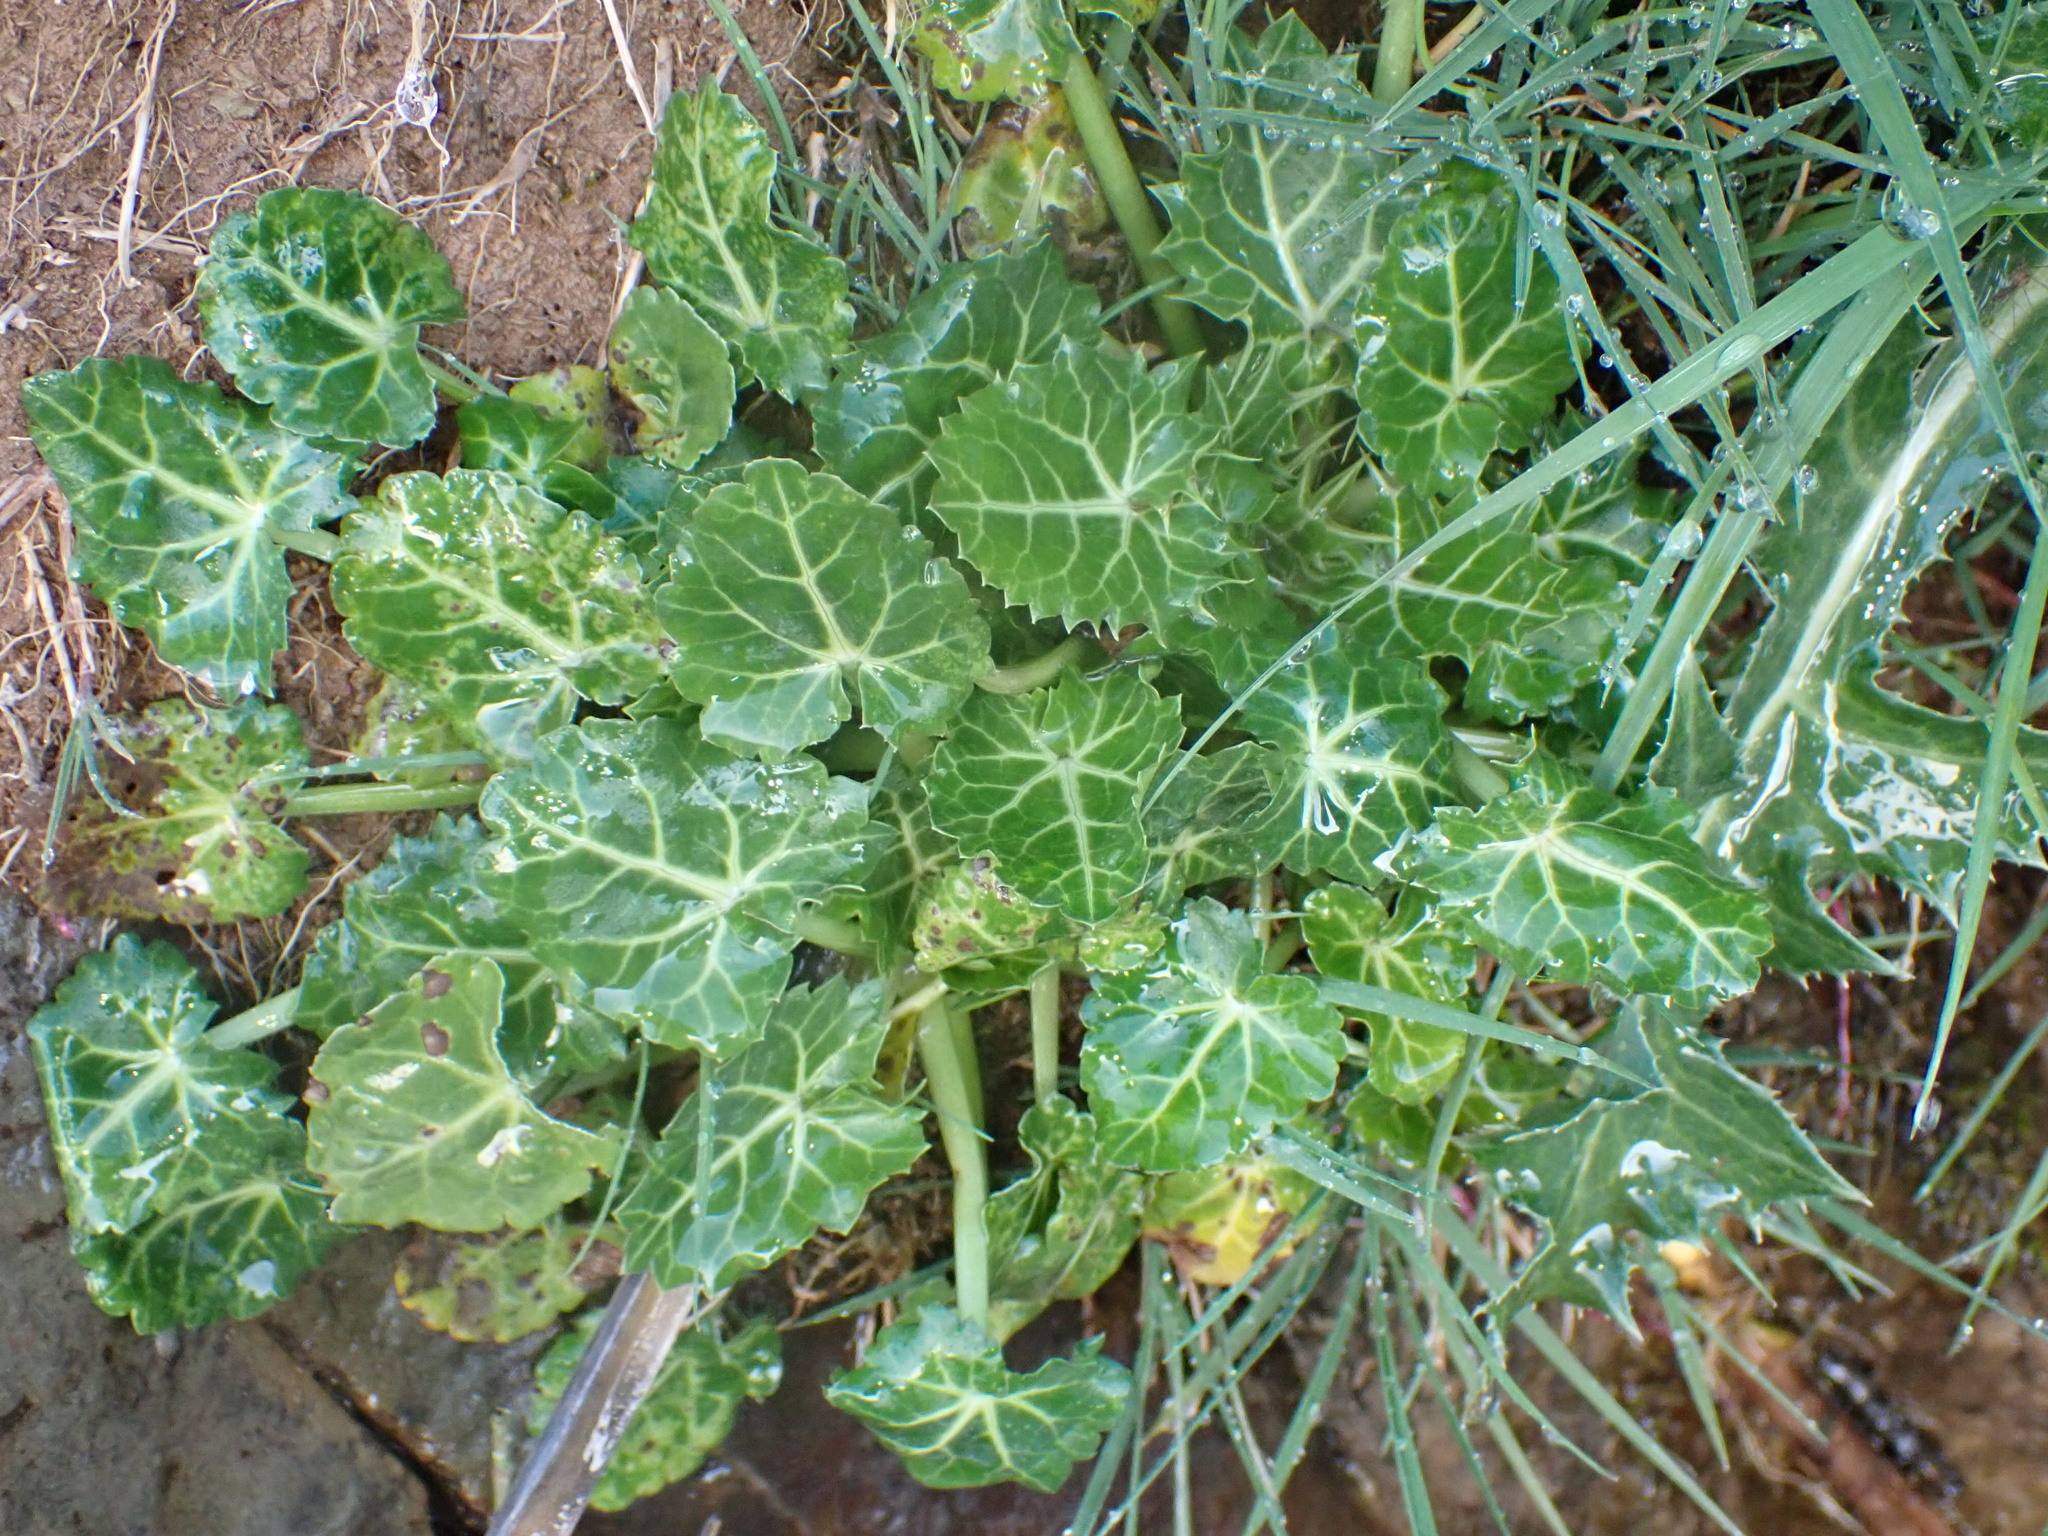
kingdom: Plantae
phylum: Tracheophyta
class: Magnoliopsida
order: Apiales
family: Apiaceae
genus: Eryngium
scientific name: Eryngium variifolium
